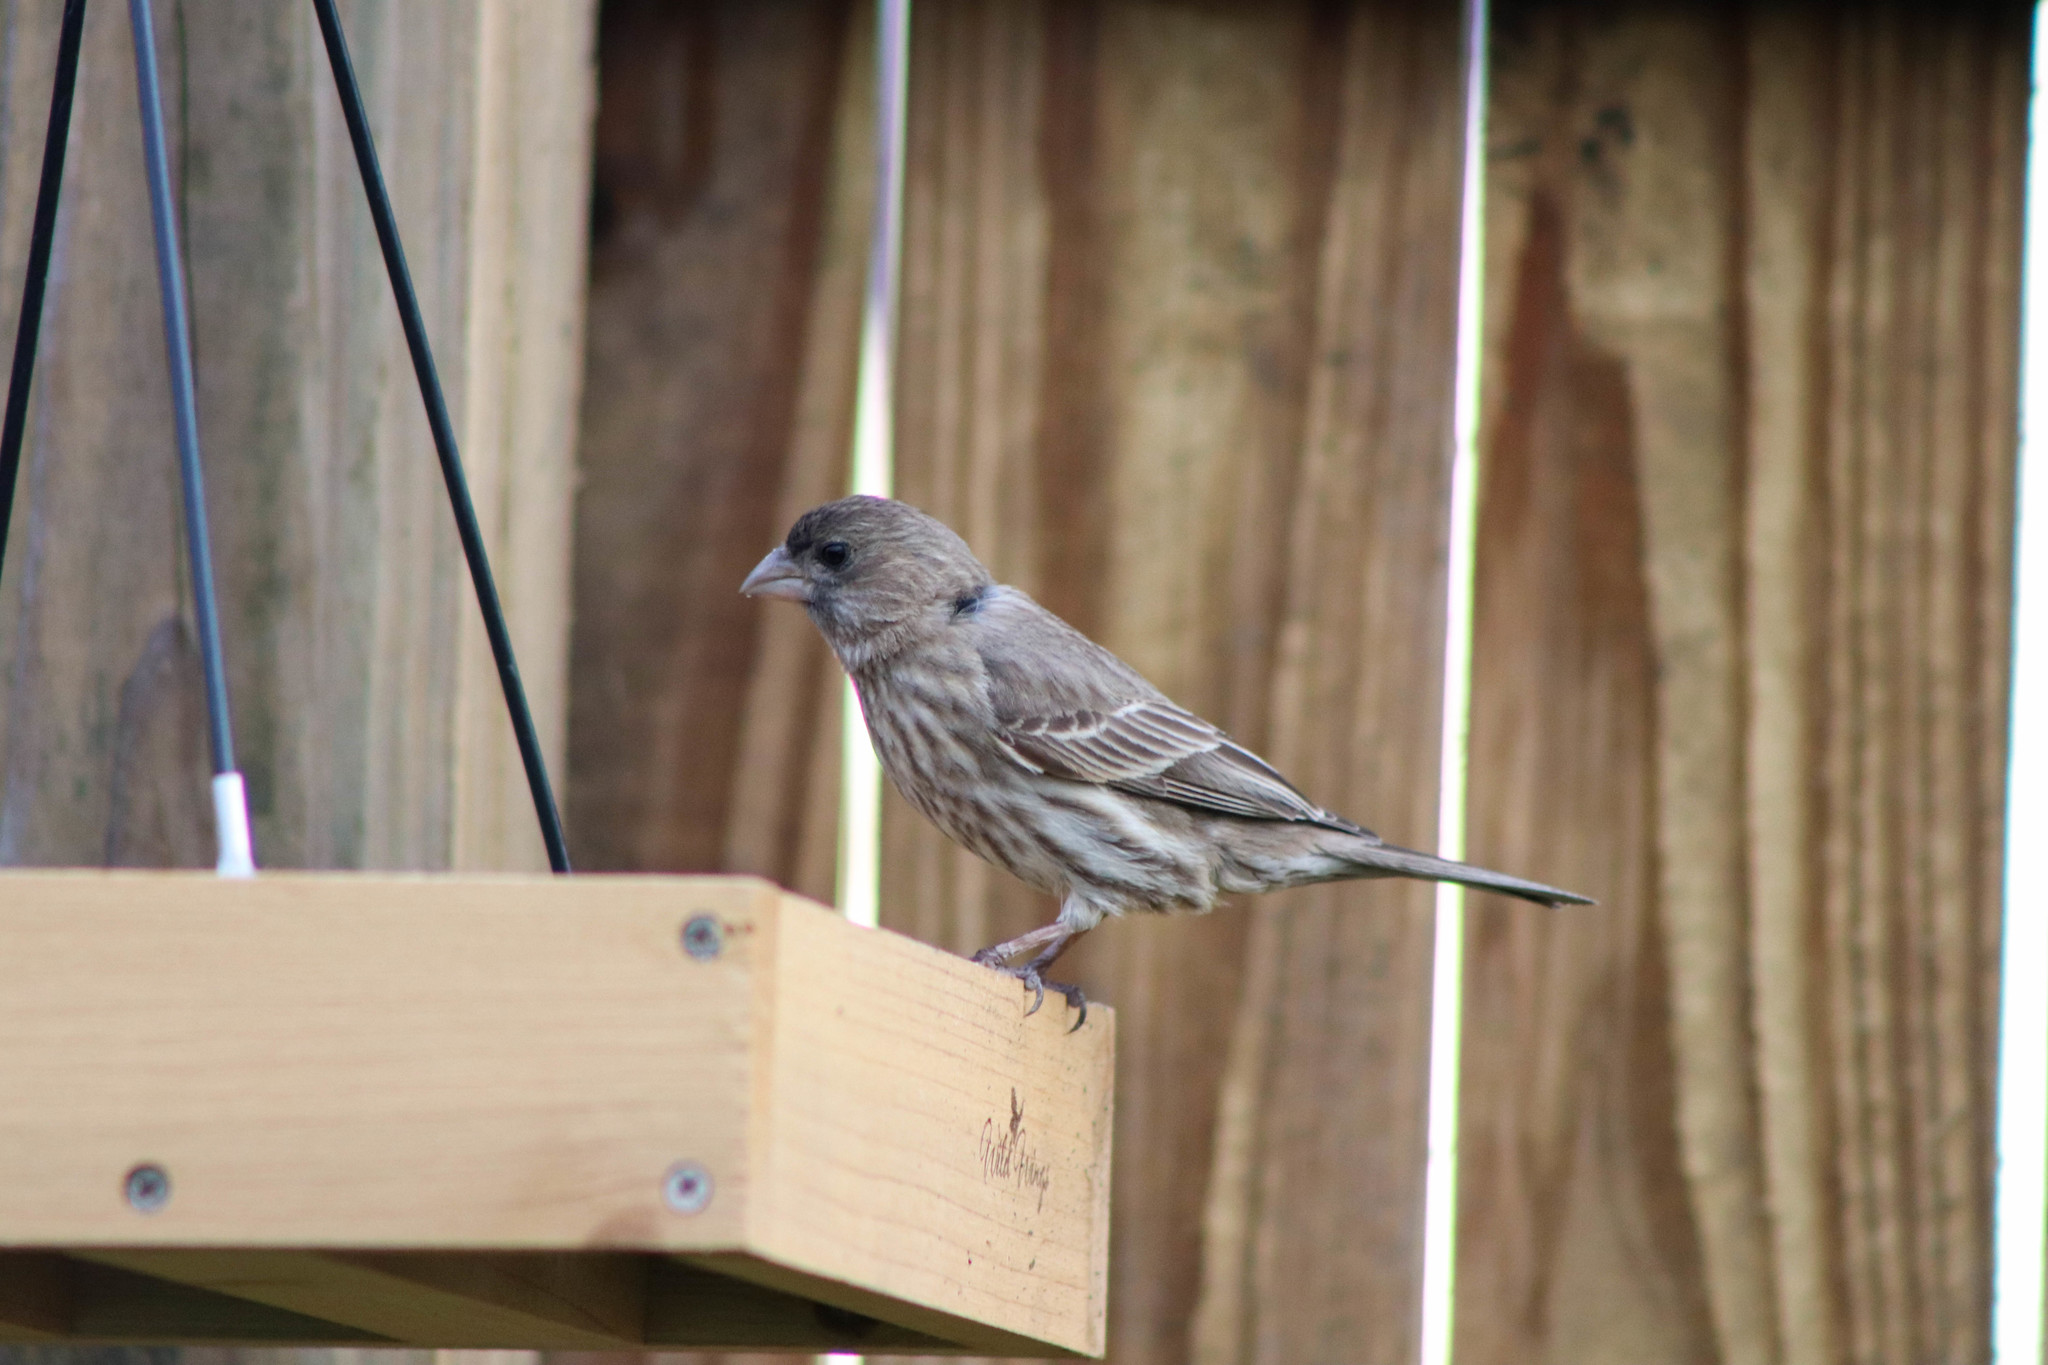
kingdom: Animalia
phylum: Chordata
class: Aves
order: Passeriformes
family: Fringillidae
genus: Haemorhous
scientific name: Haemorhous mexicanus
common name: House finch
